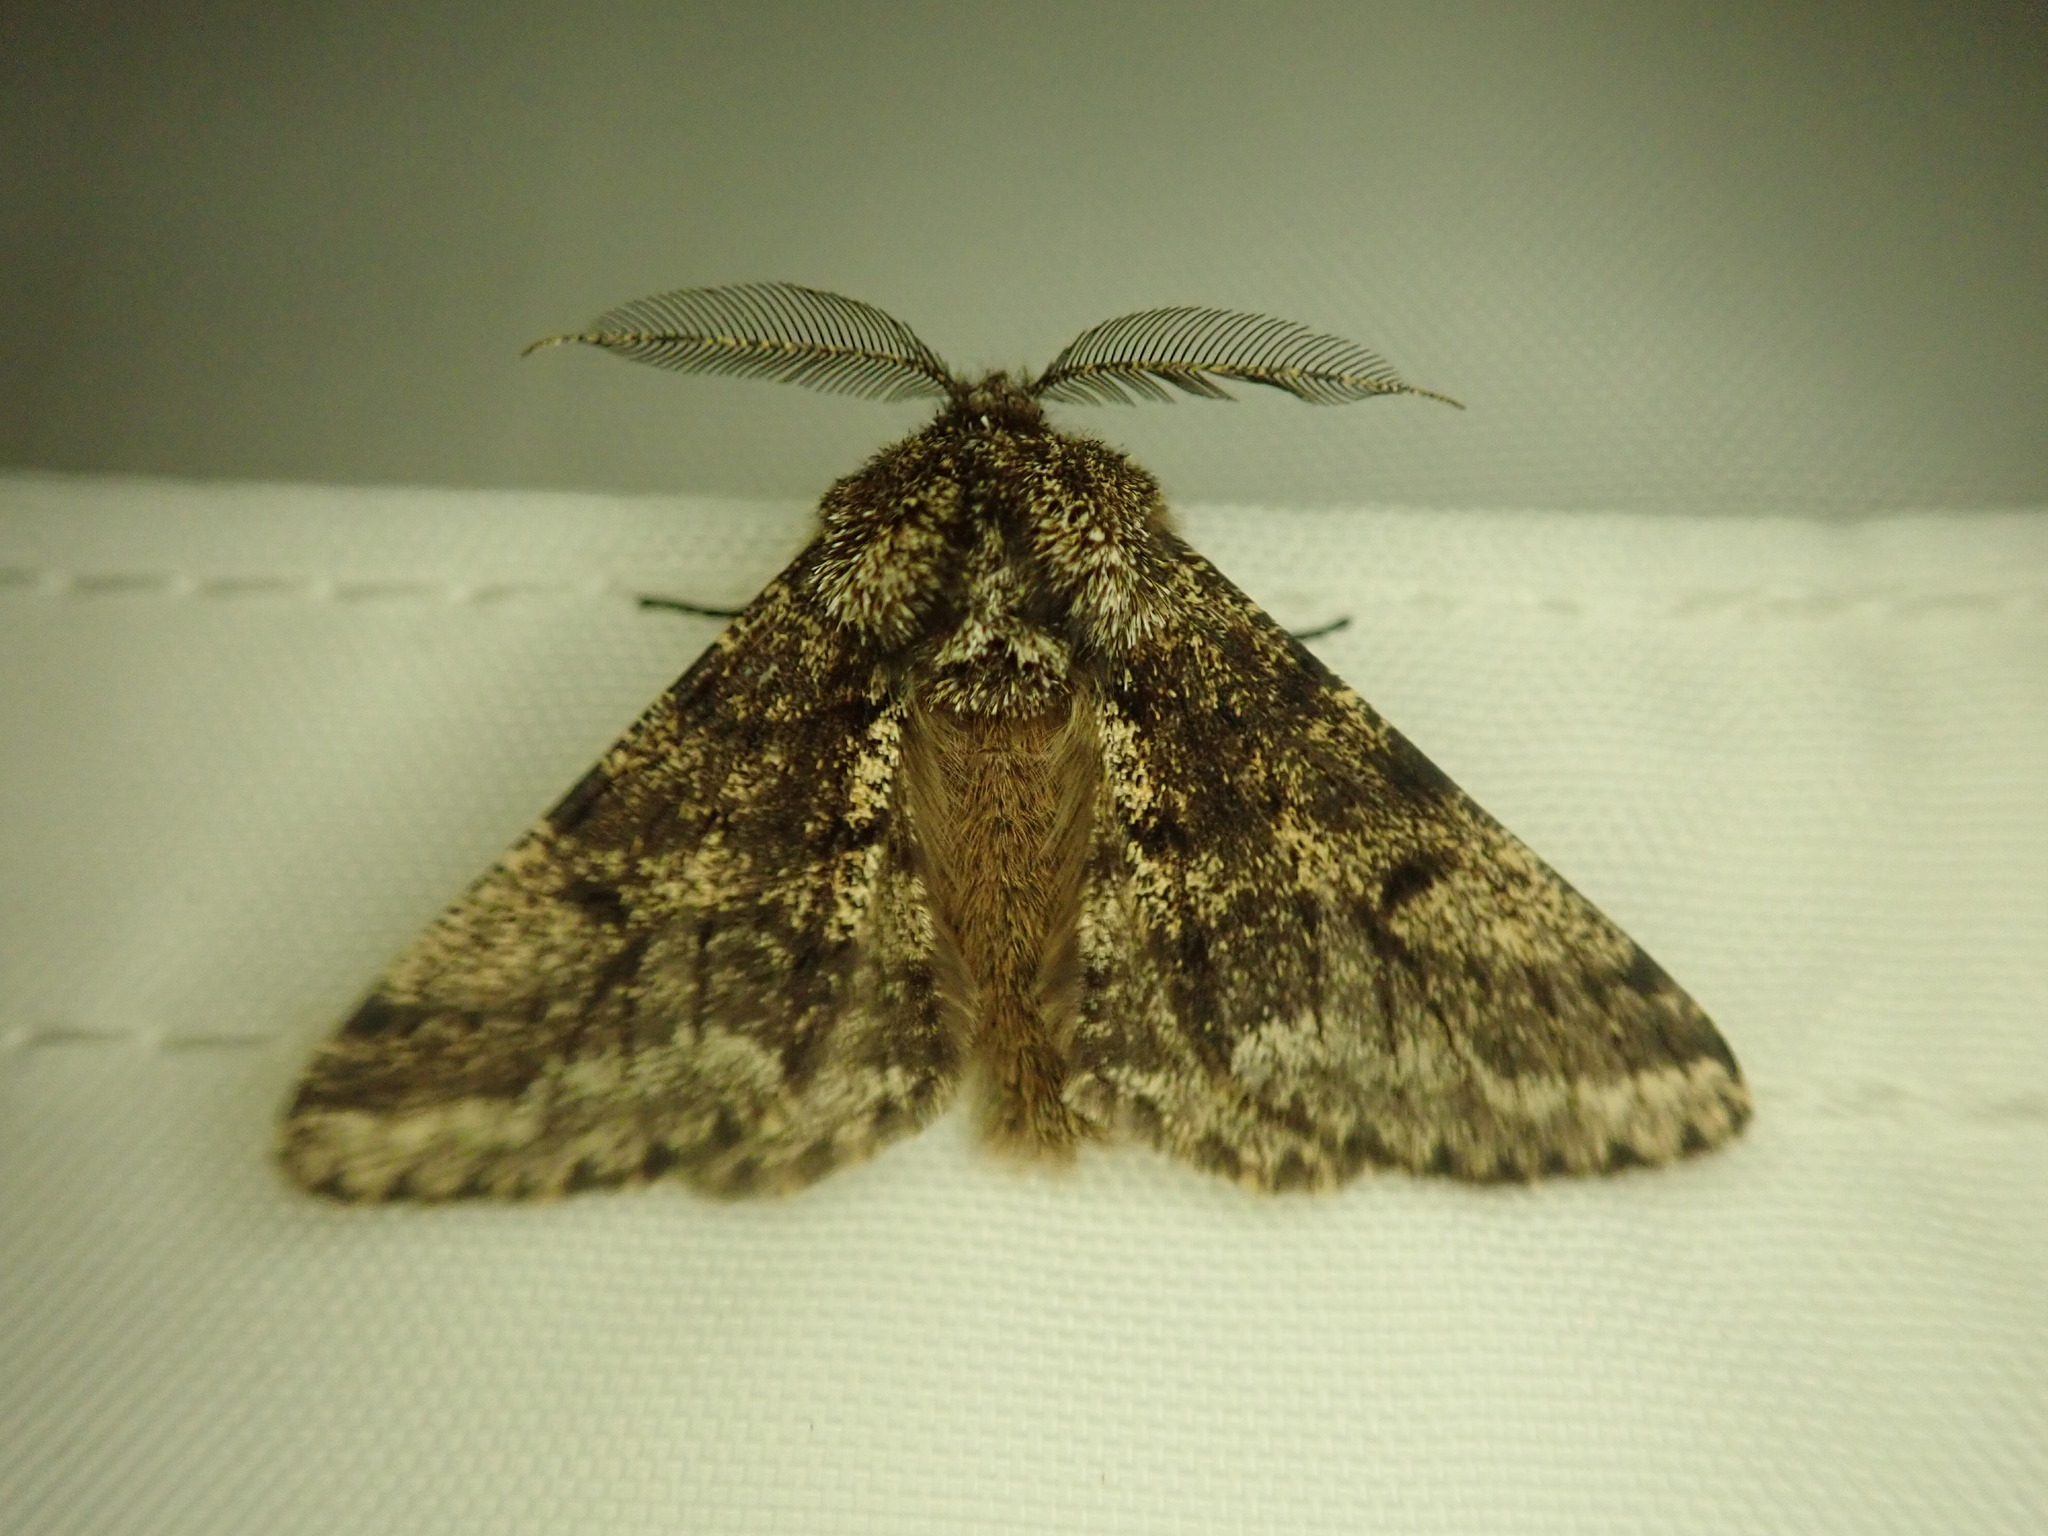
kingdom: Animalia
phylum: Arthropoda
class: Insecta
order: Lepidoptera
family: Geometridae
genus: Lycia
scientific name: Lycia hirtaria
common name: Brindled beauty
